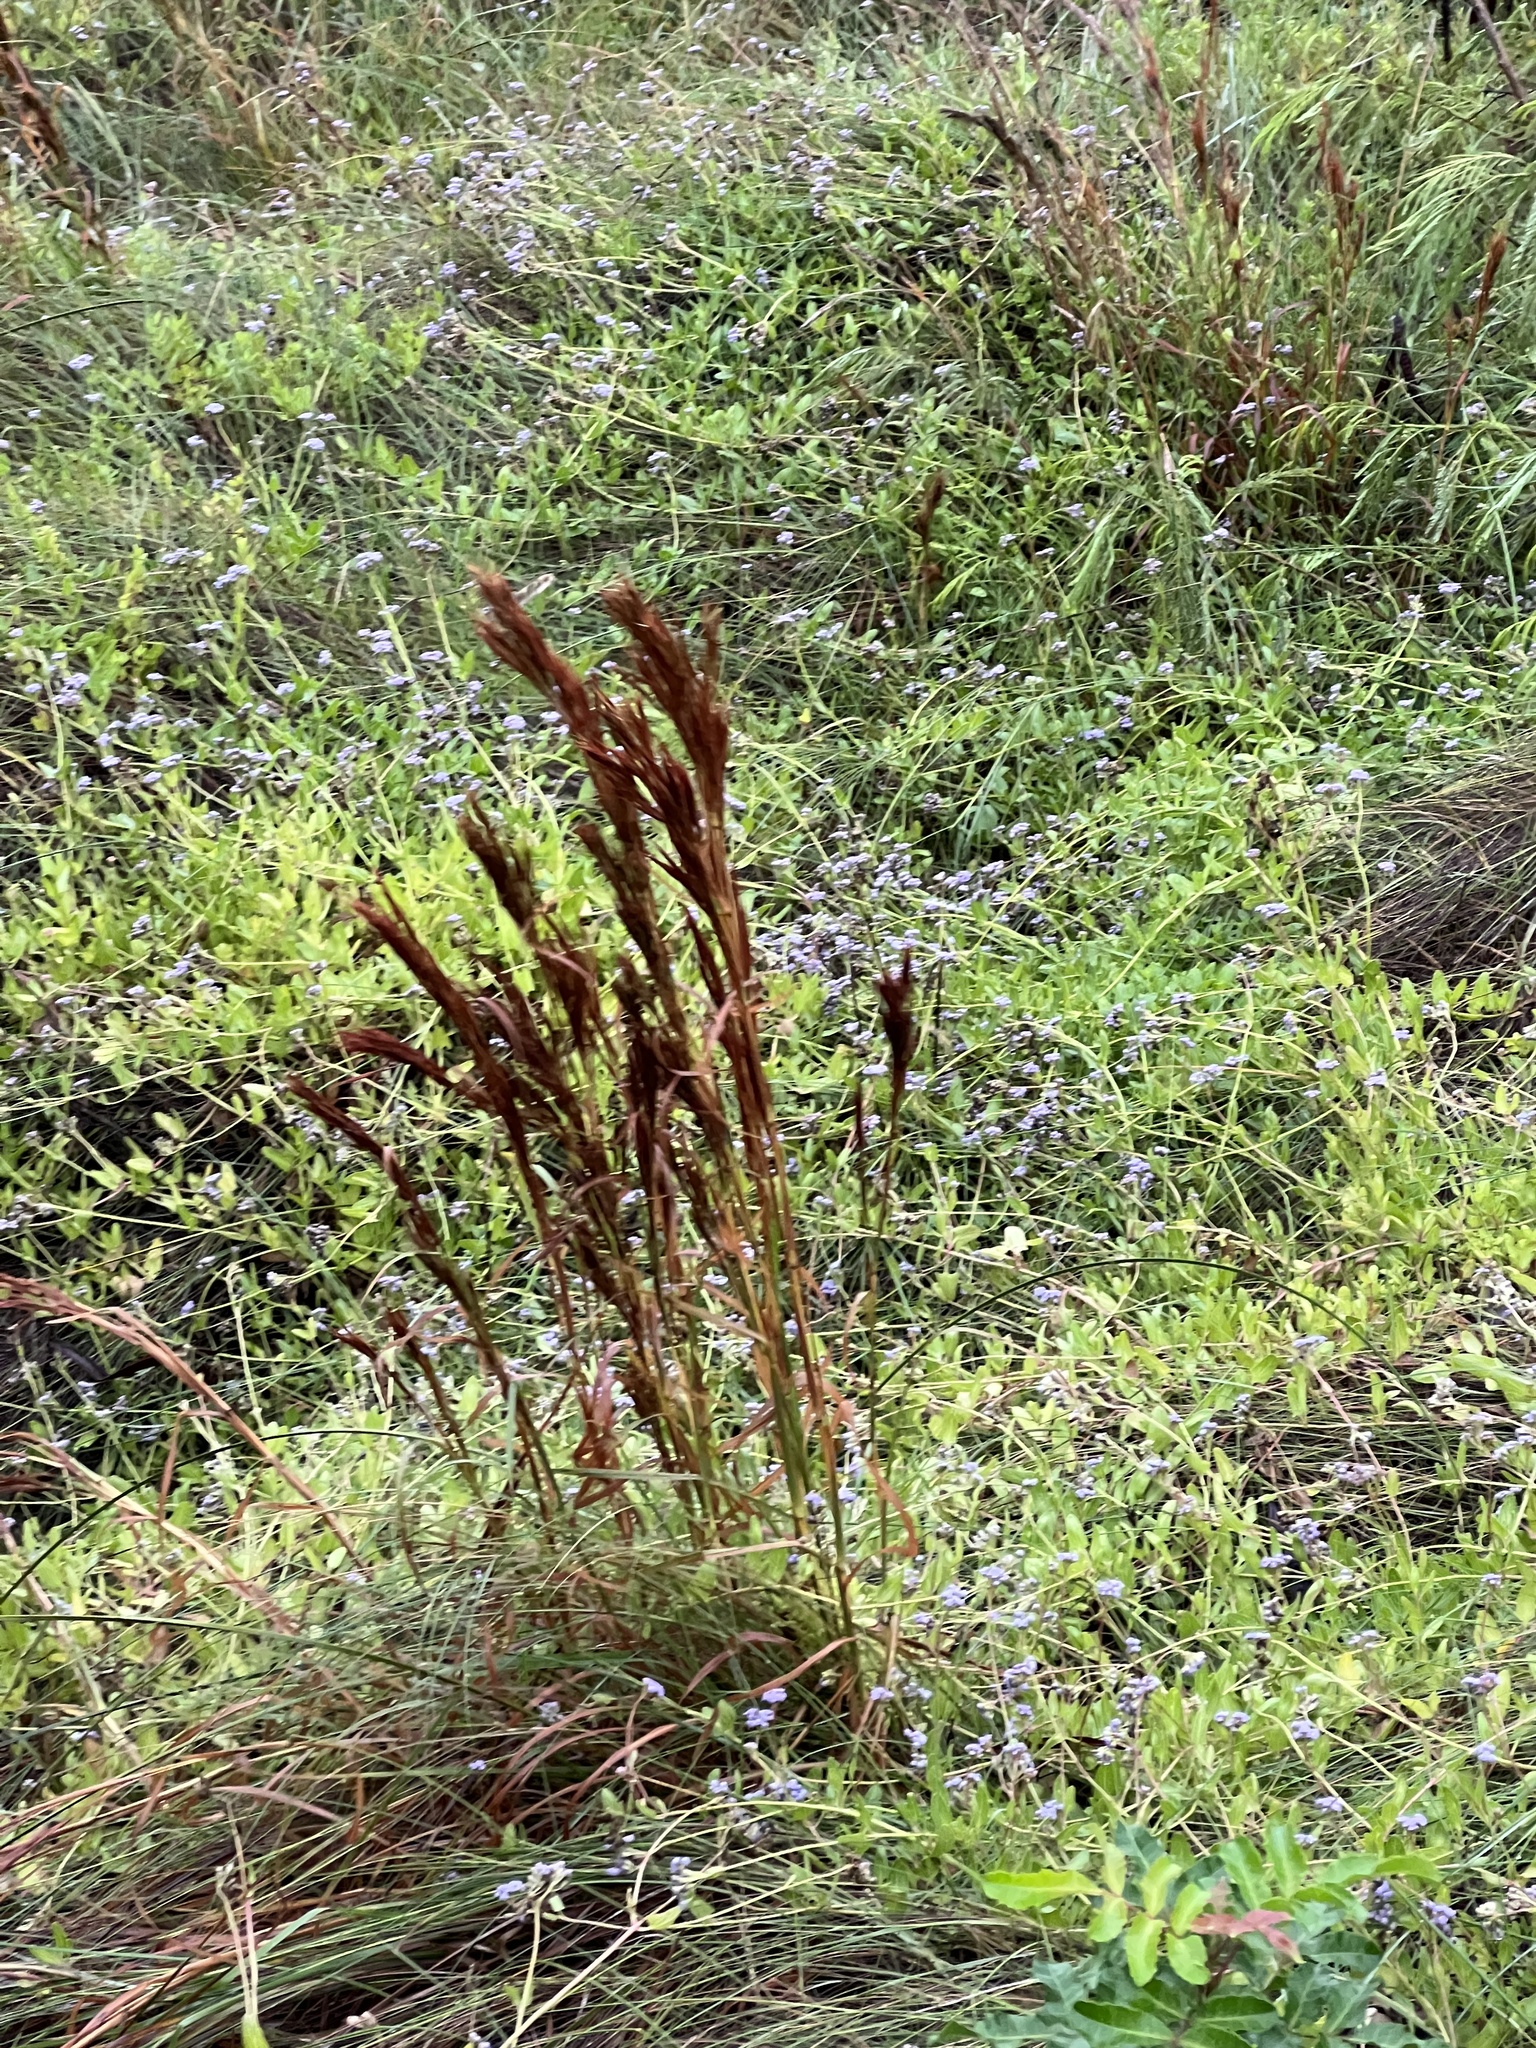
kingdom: Plantae
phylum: Tracheophyta
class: Liliopsida
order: Poales
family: Poaceae
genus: Andropogon
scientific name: Andropogon tenuispatheus
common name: Bushy bluestem
